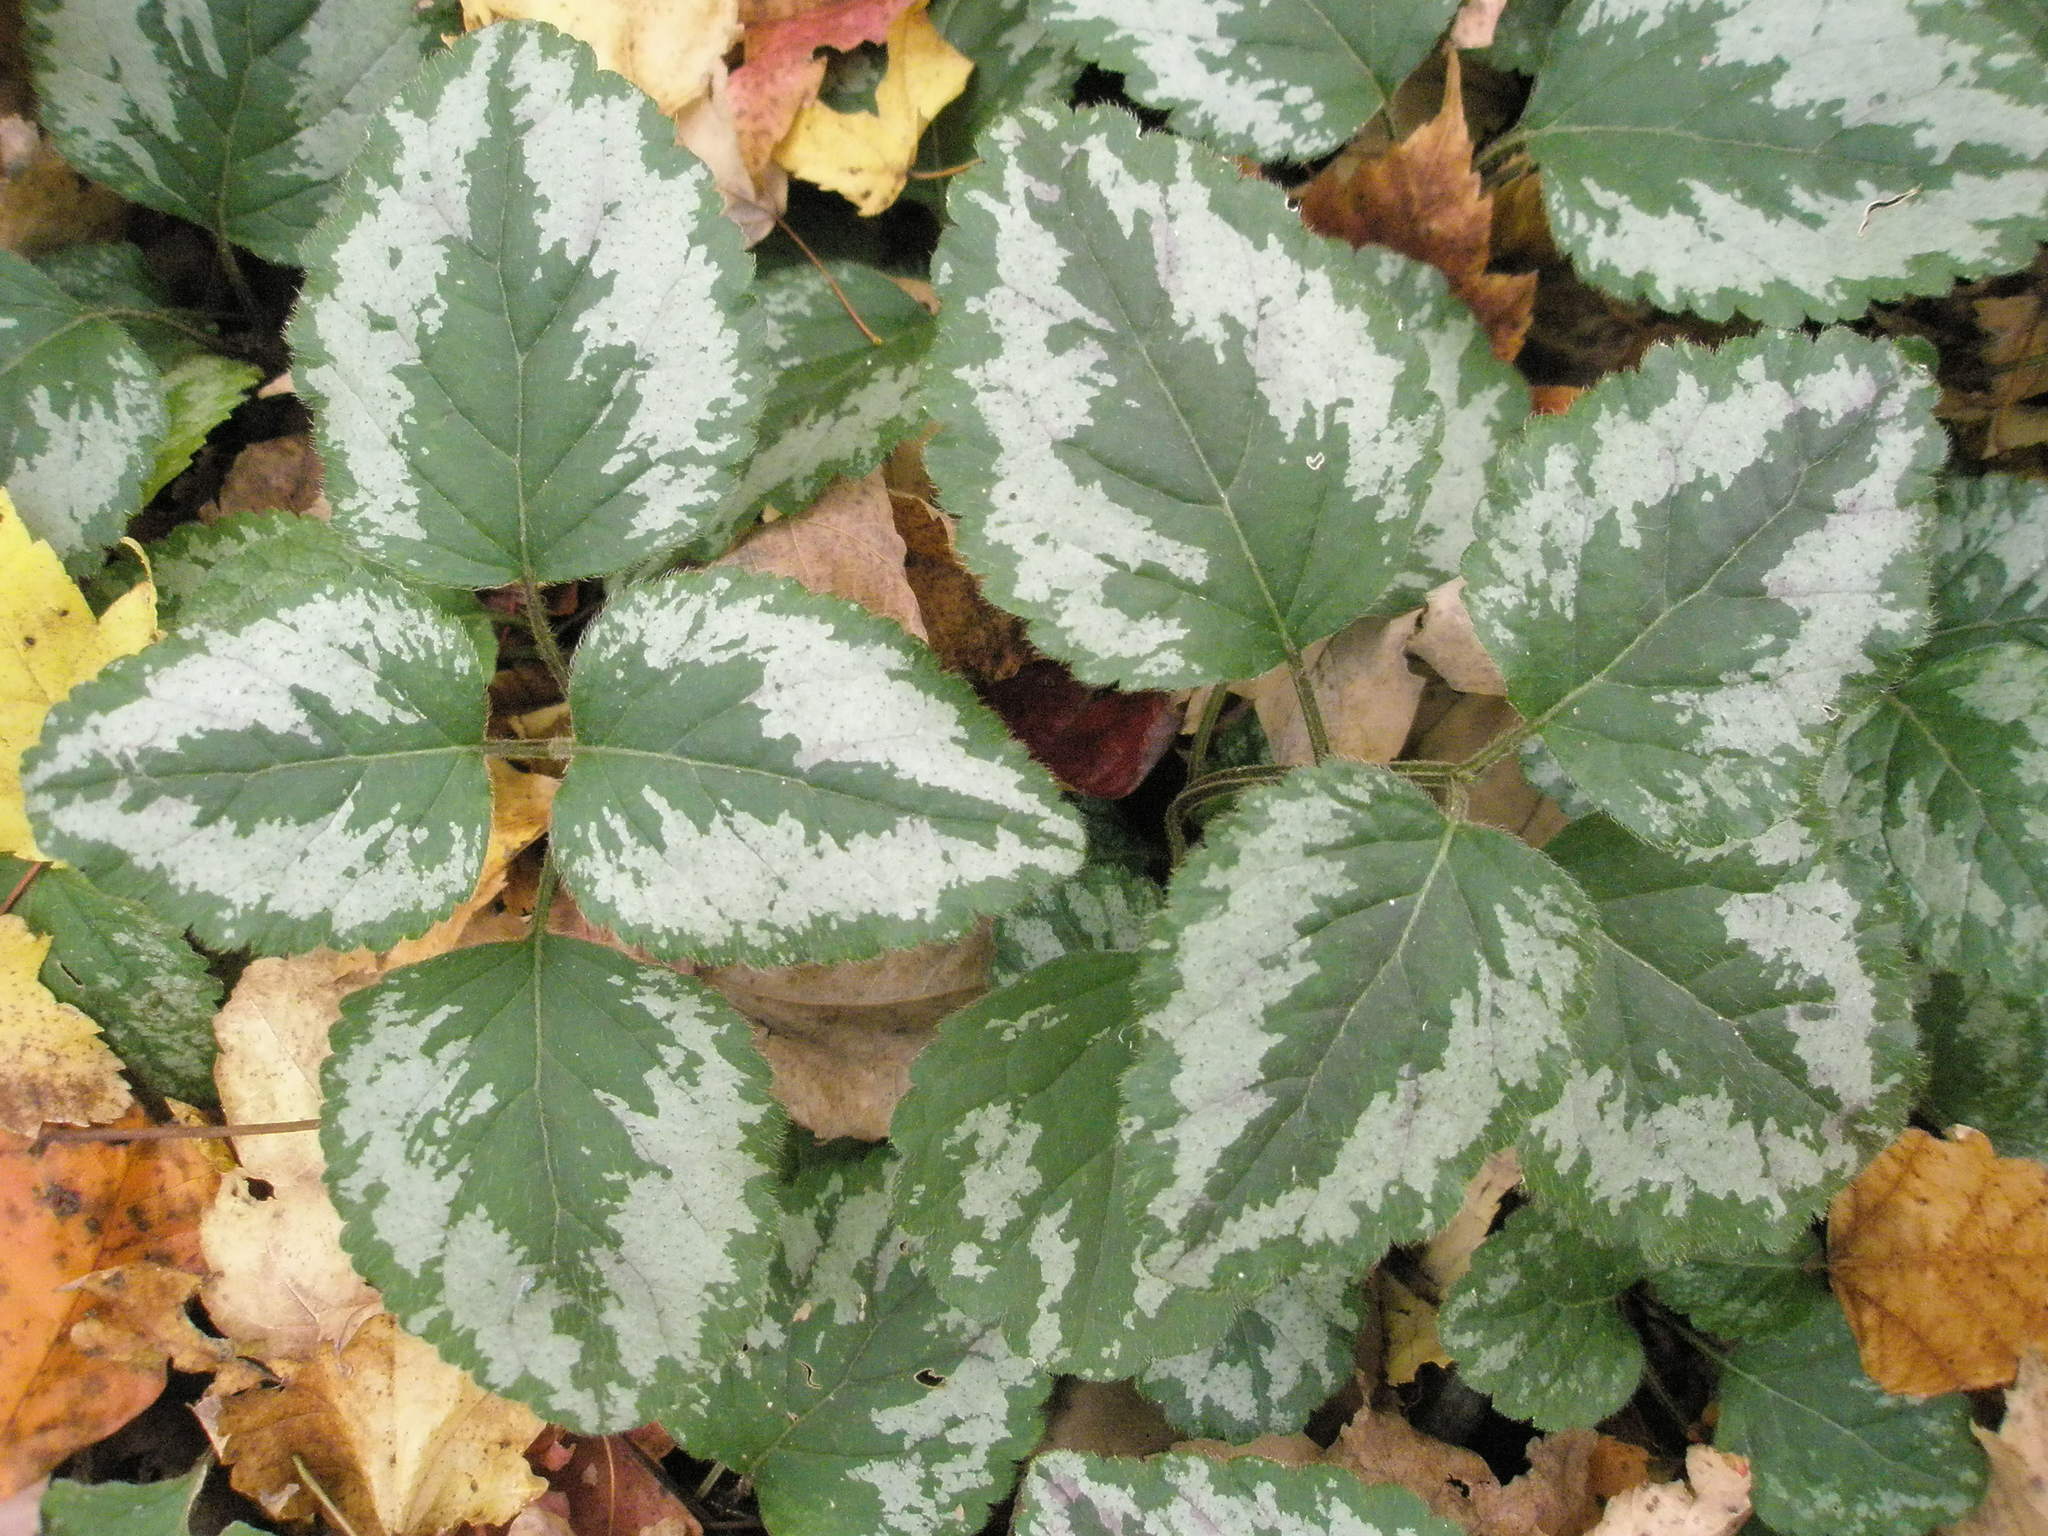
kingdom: Plantae
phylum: Tracheophyta
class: Magnoliopsida
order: Lamiales
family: Lamiaceae
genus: Lamium
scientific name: Lamium galeobdolon
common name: Yellow archangel
